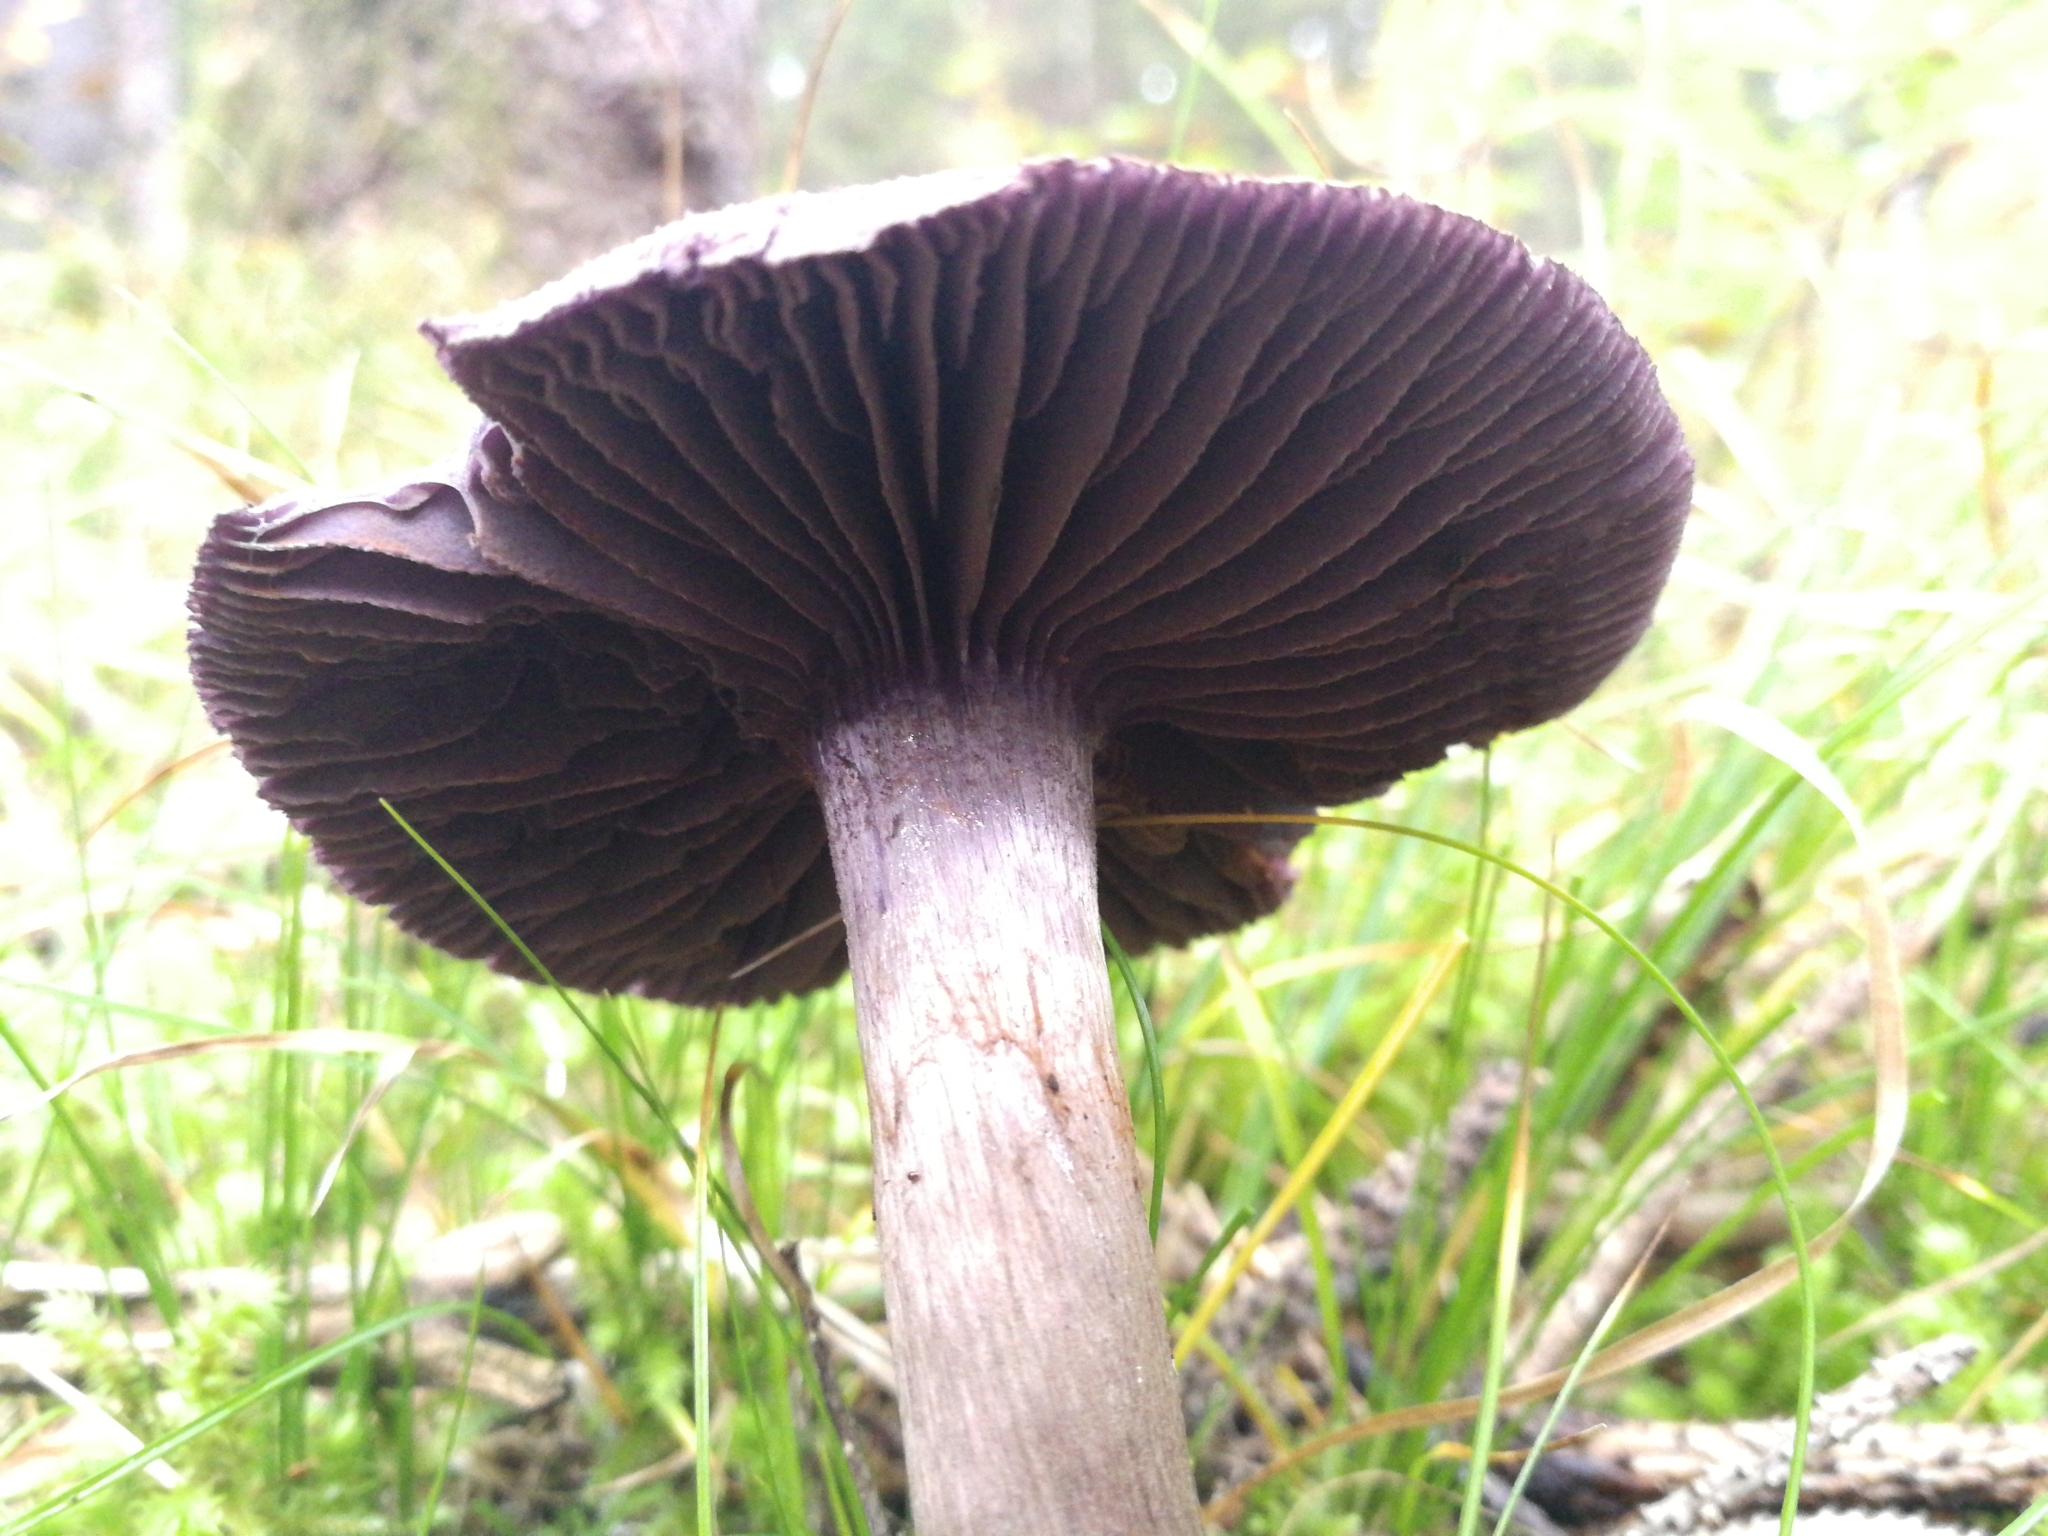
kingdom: Fungi
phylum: Basidiomycota
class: Agaricomycetes
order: Agaricales
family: Cortinariaceae
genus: Cortinarius
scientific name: Cortinarius violaceus
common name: Violet webcap
